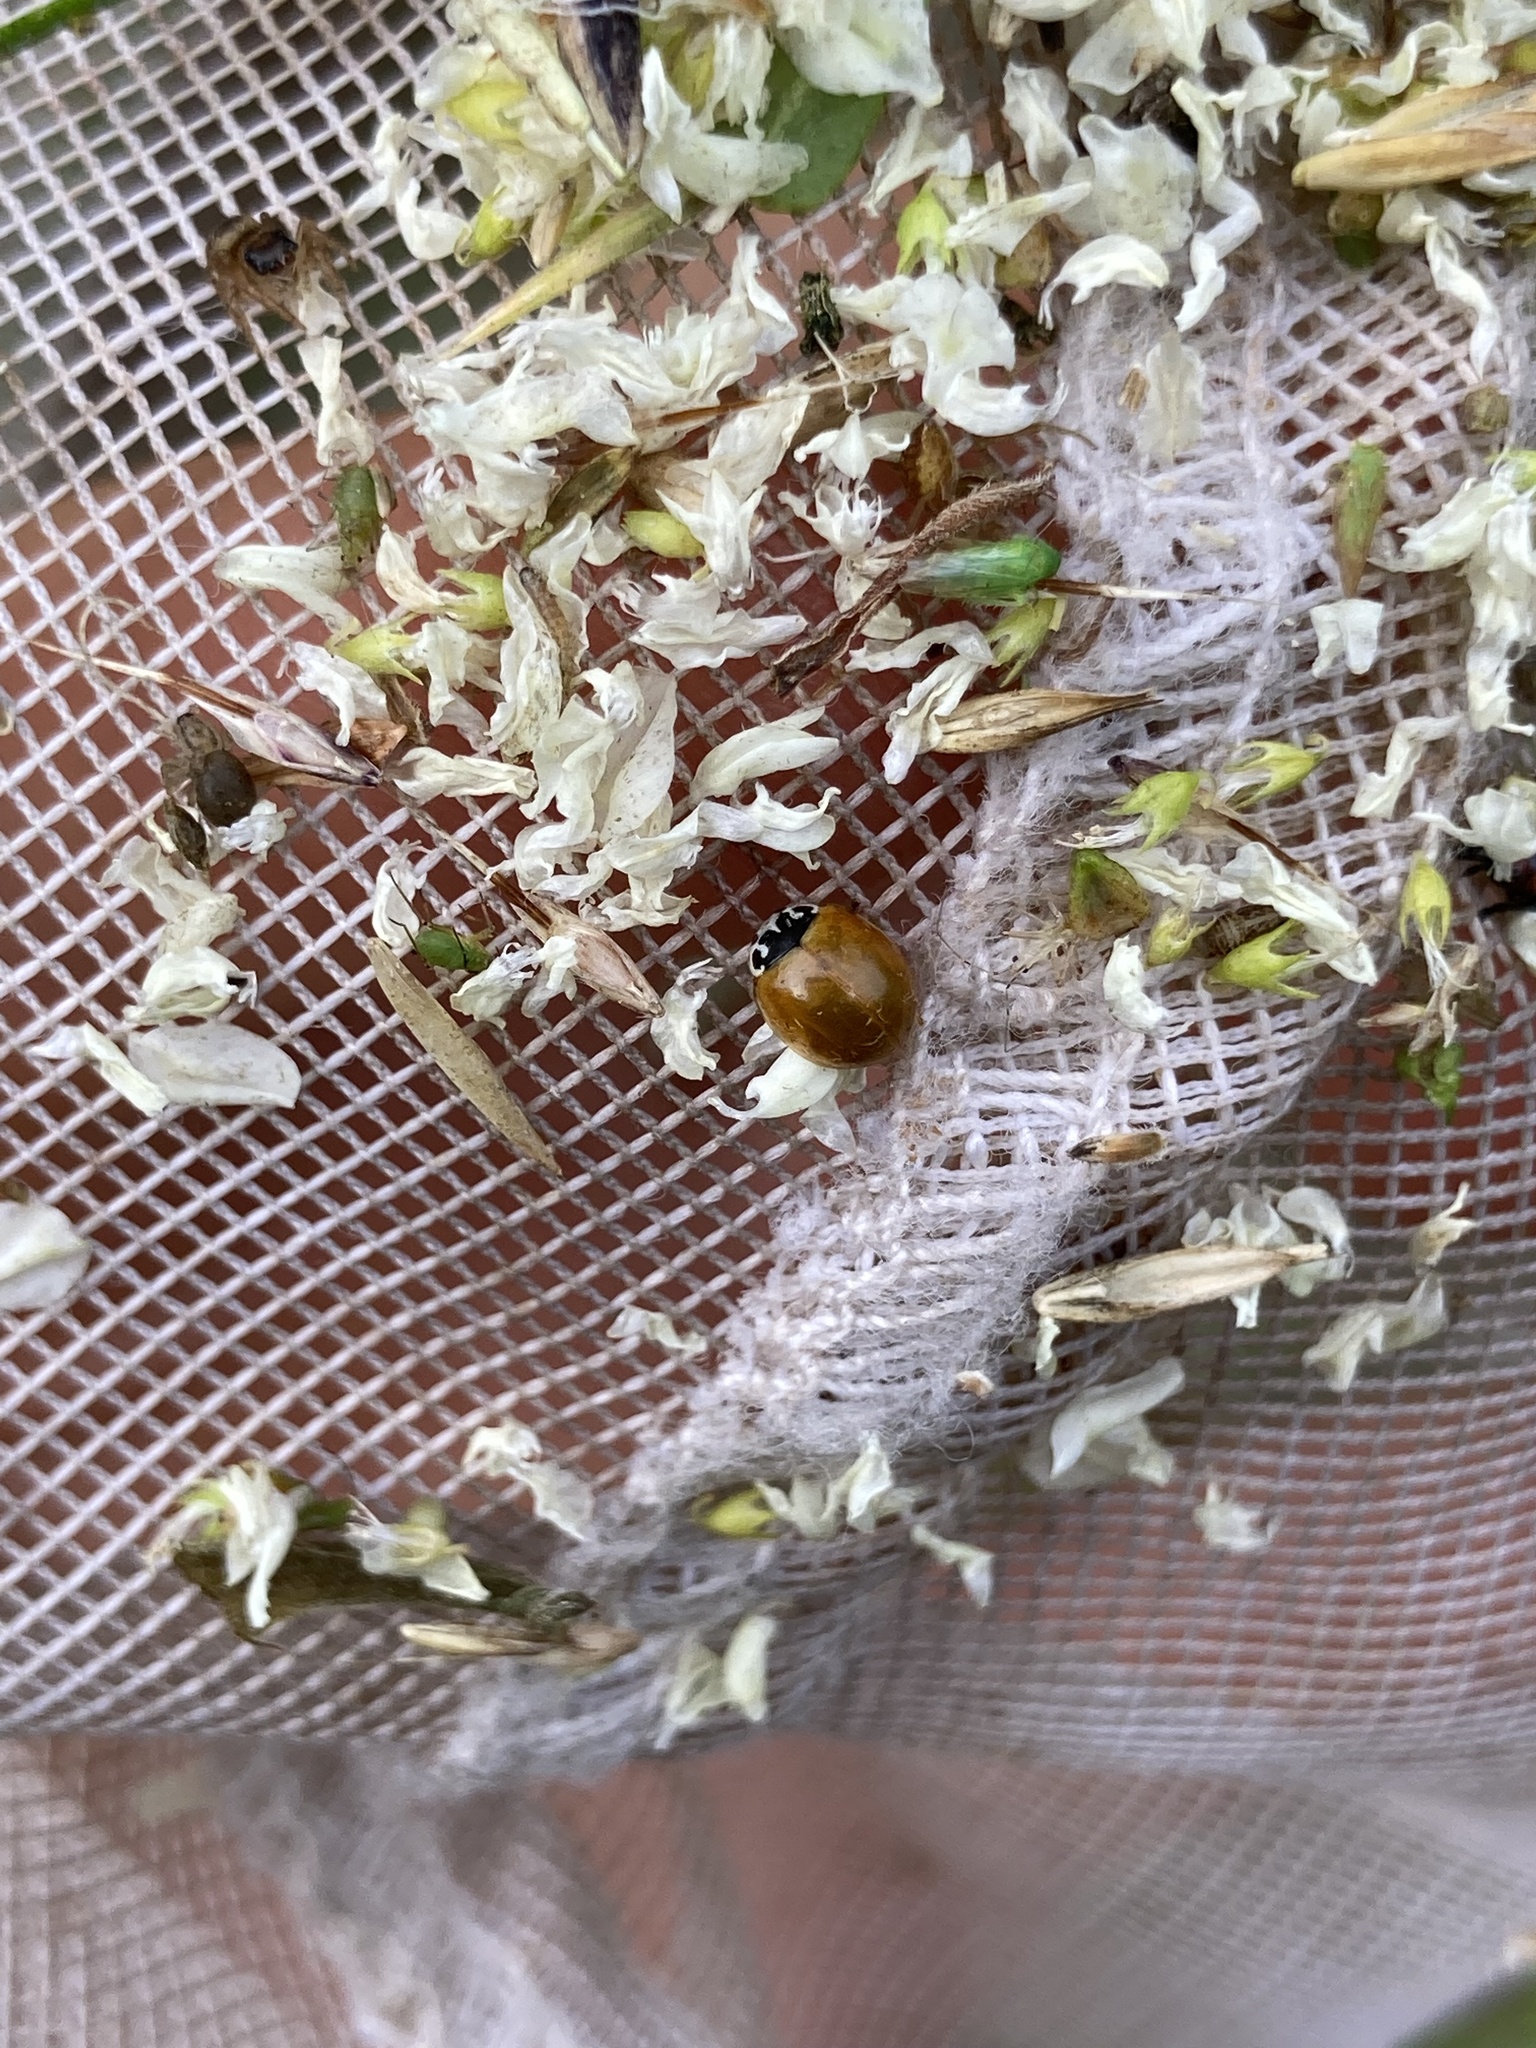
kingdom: Animalia
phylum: Arthropoda
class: Insecta
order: Coleoptera
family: Coccinellidae
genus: Cycloneda
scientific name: Cycloneda munda
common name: Polished lady beetle
